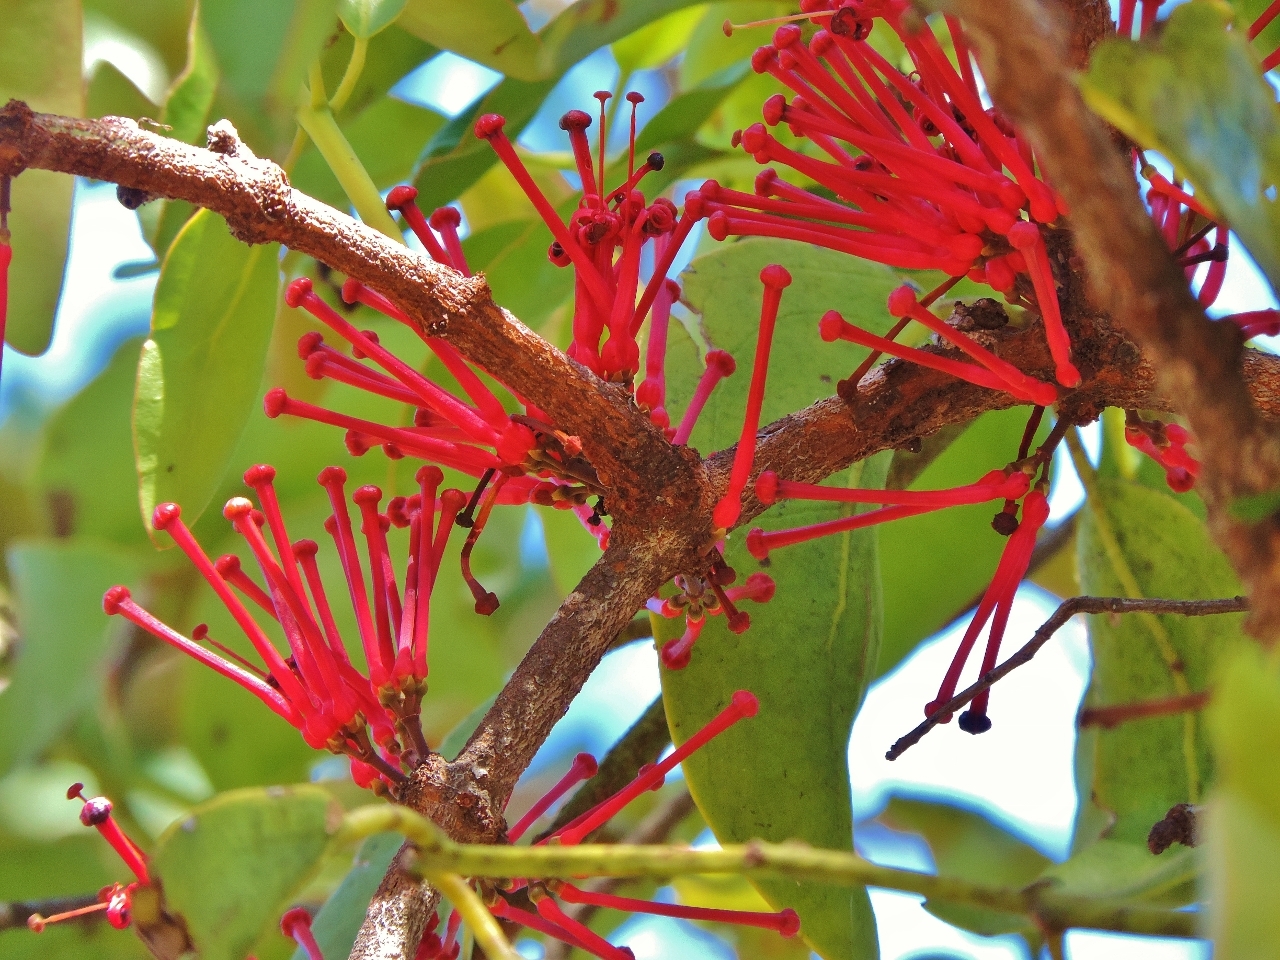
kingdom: Plantae
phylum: Tracheophyta
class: Magnoliopsida
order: Santalales
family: Loranthaceae
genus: Globimetula
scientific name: Globimetula mweroensis
